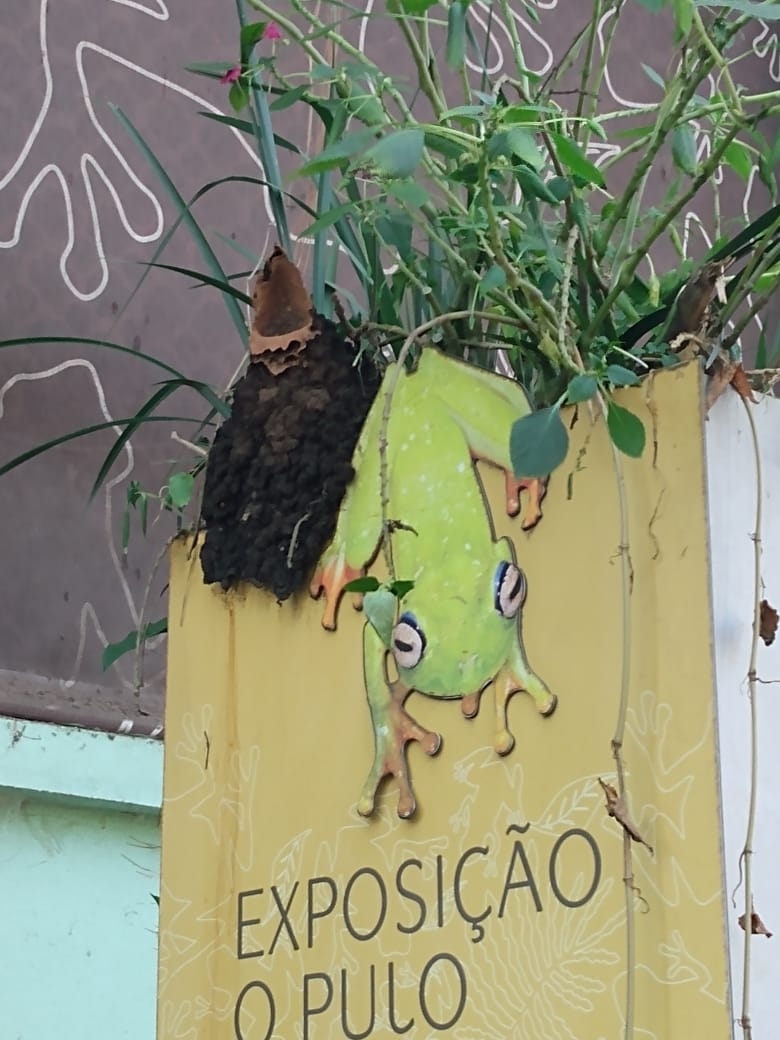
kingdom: Animalia
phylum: Arthropoda
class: Insecta
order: Hymenoptera
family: Apidae
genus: Partamona
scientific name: Partamona helleri
